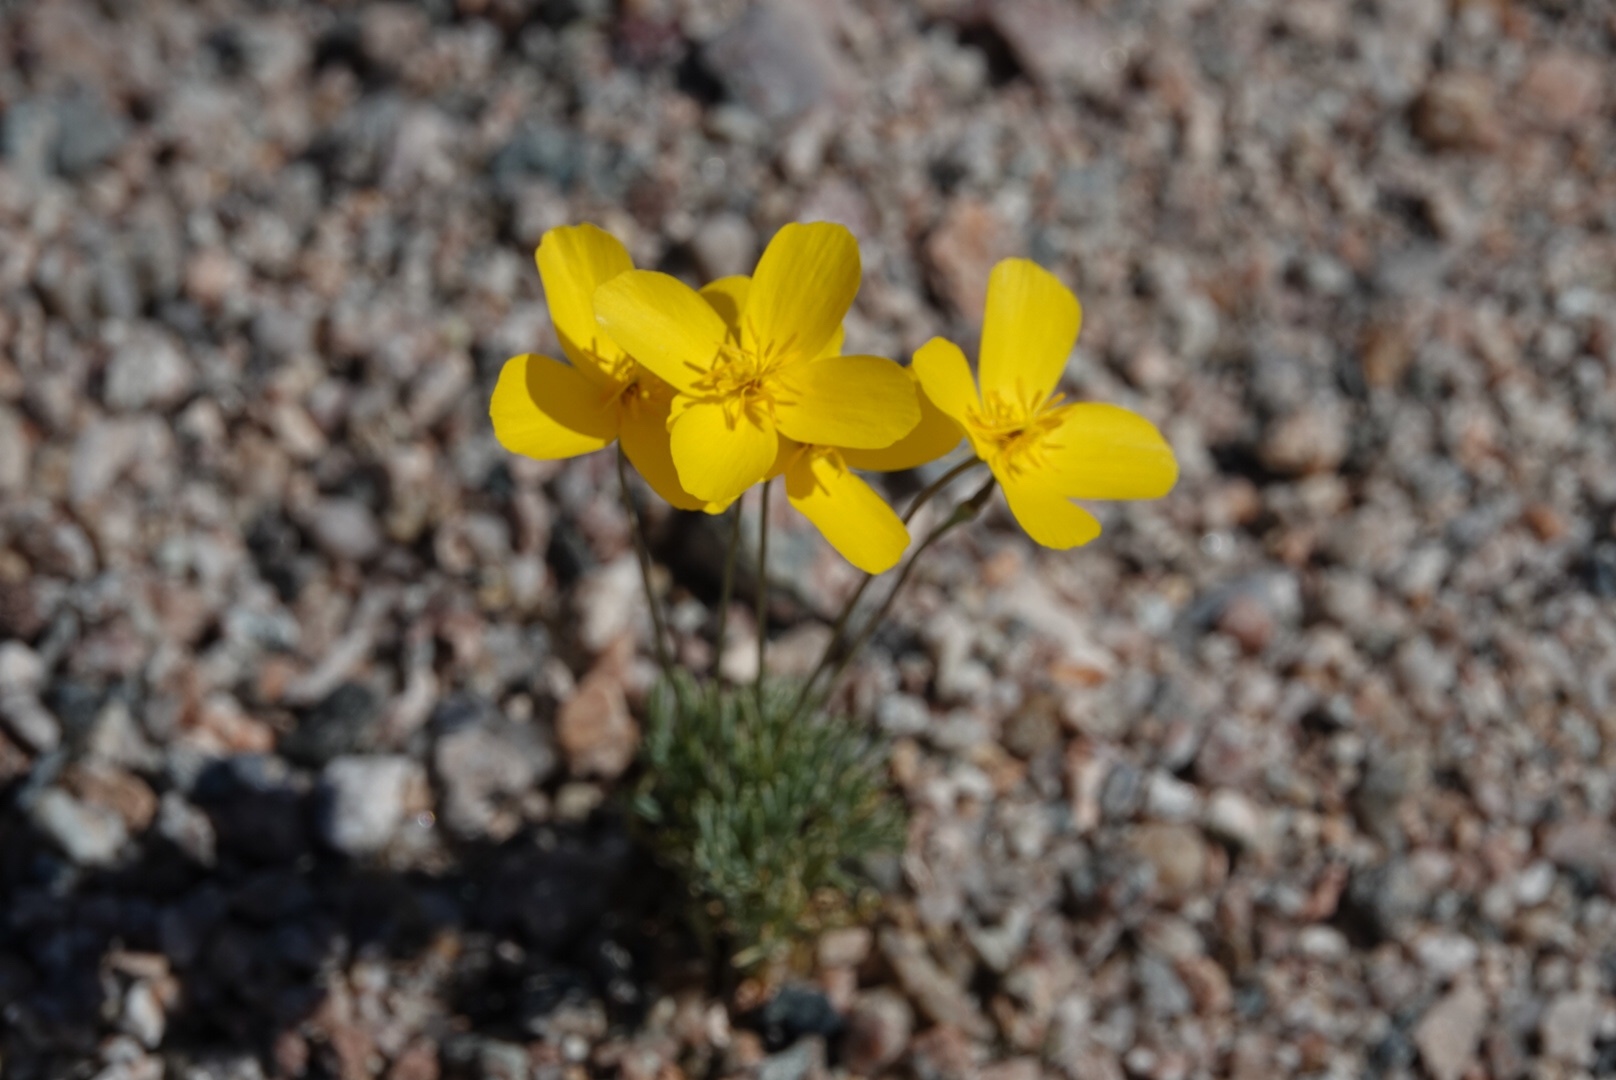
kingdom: Plantae
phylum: Tracheophyta
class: Magnoliopsida
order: Ranunculales
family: Papaveraceae
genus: Eschscholzia
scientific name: Eschscholzia glyptosperma
